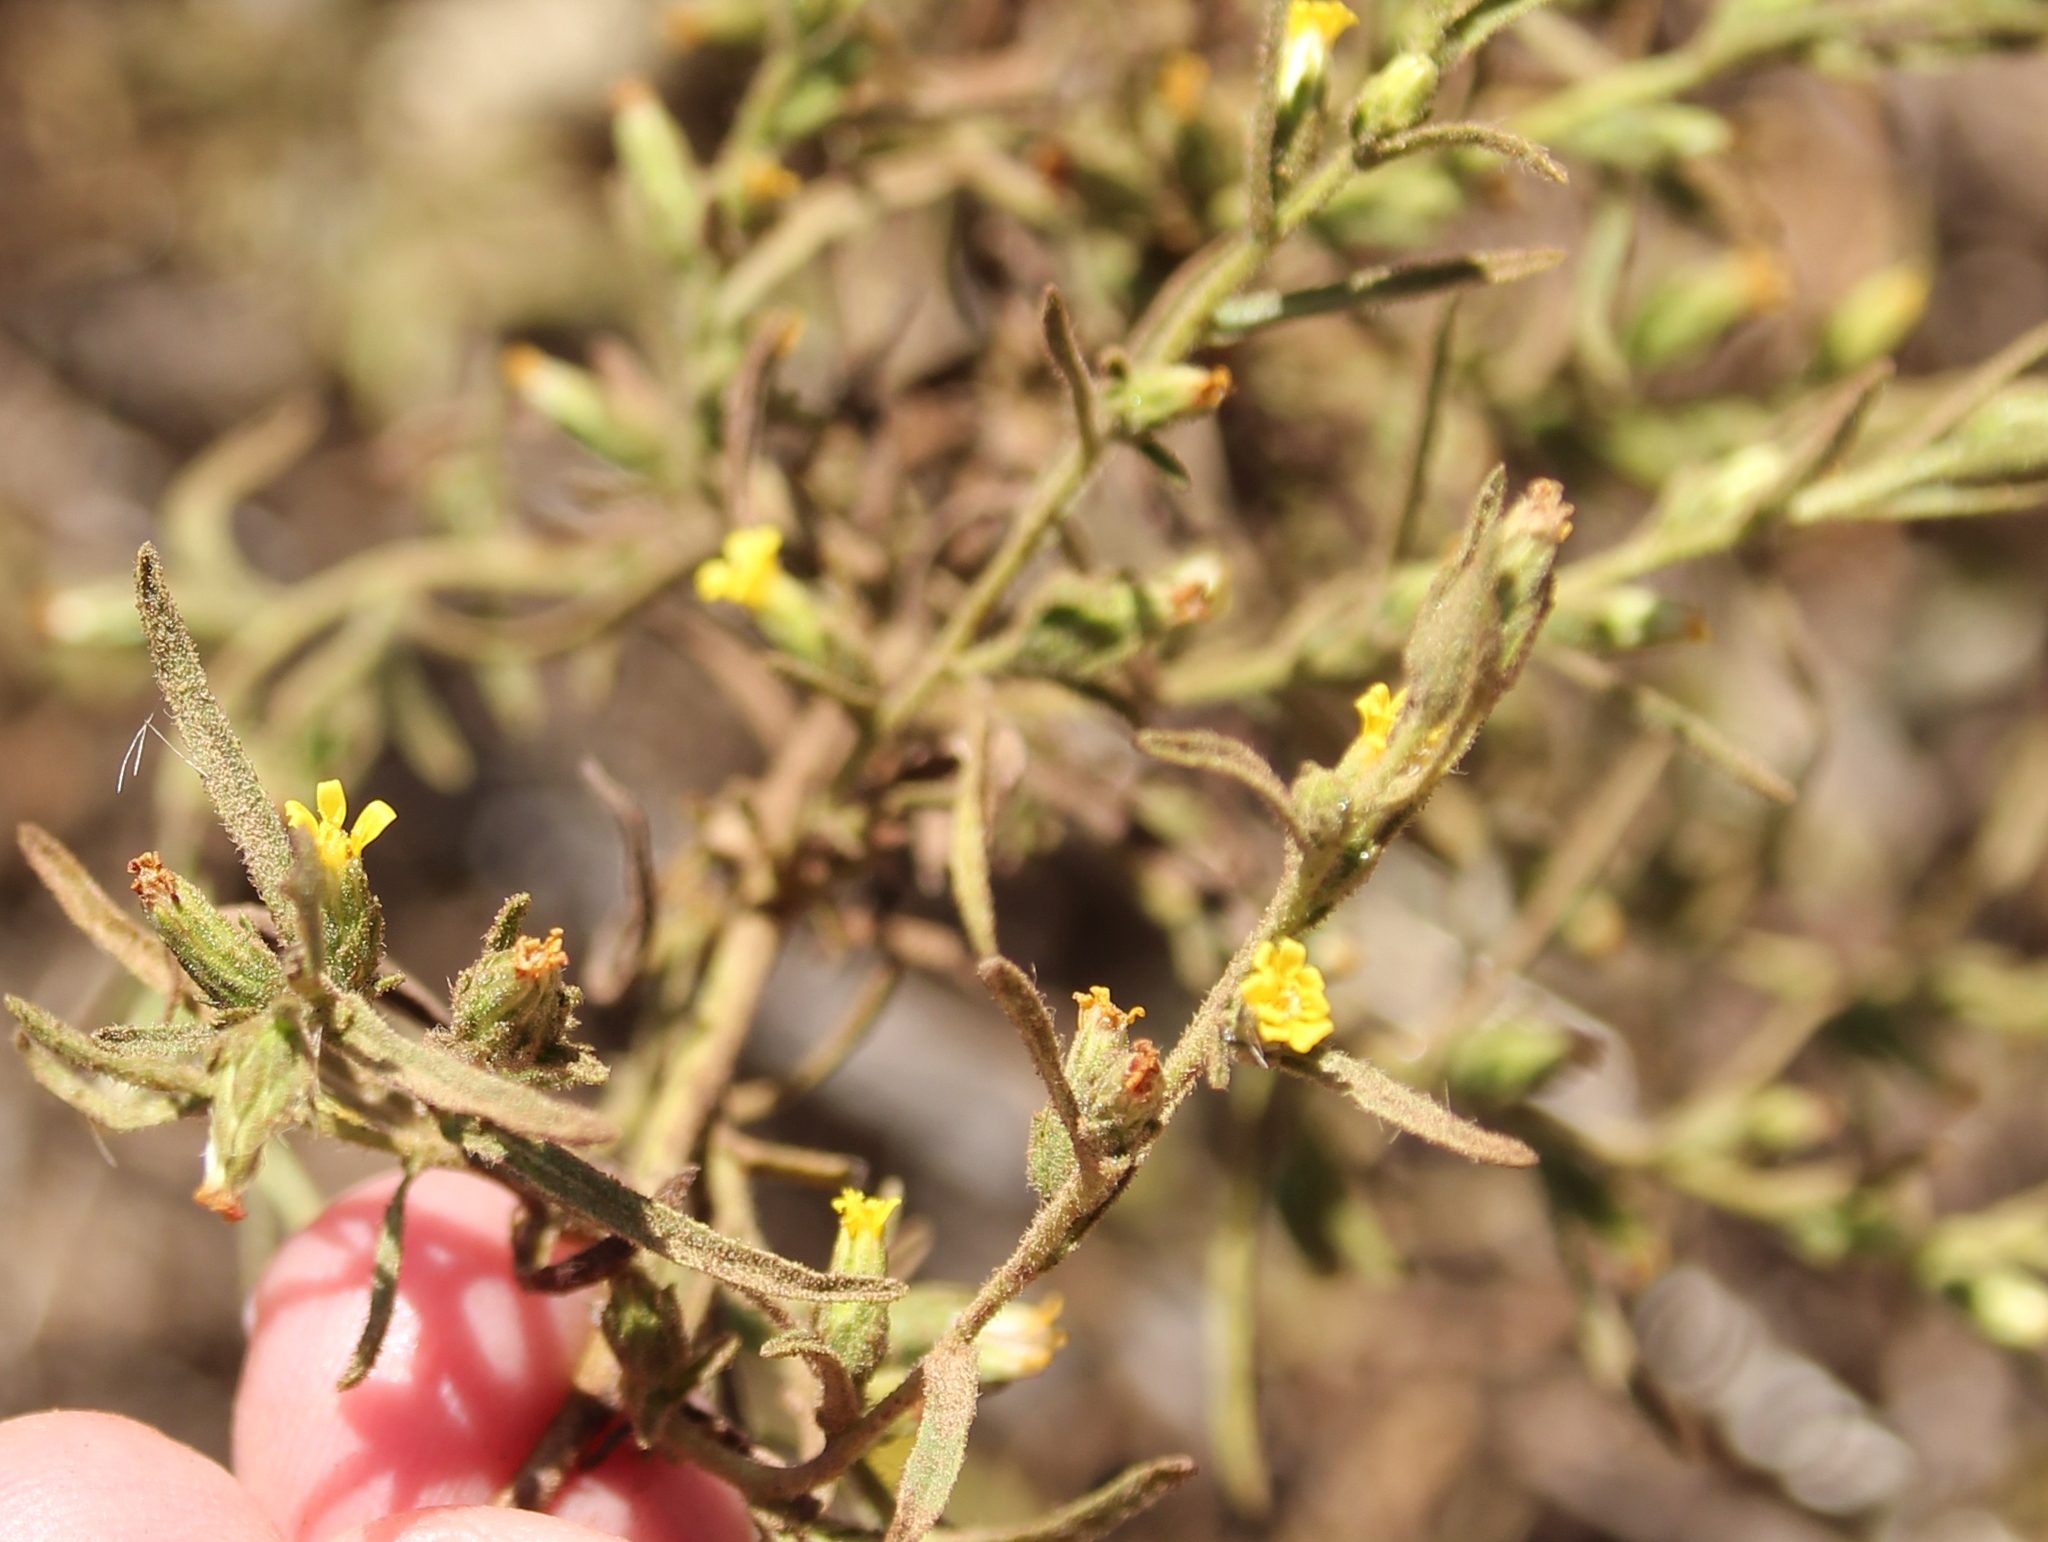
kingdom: Plantae
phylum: Tracheophyta
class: Magnoliopsida
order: Asterales
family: Asteraceae
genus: Dittrichia
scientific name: Dittrichia graveolens
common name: Stinking fleabane
